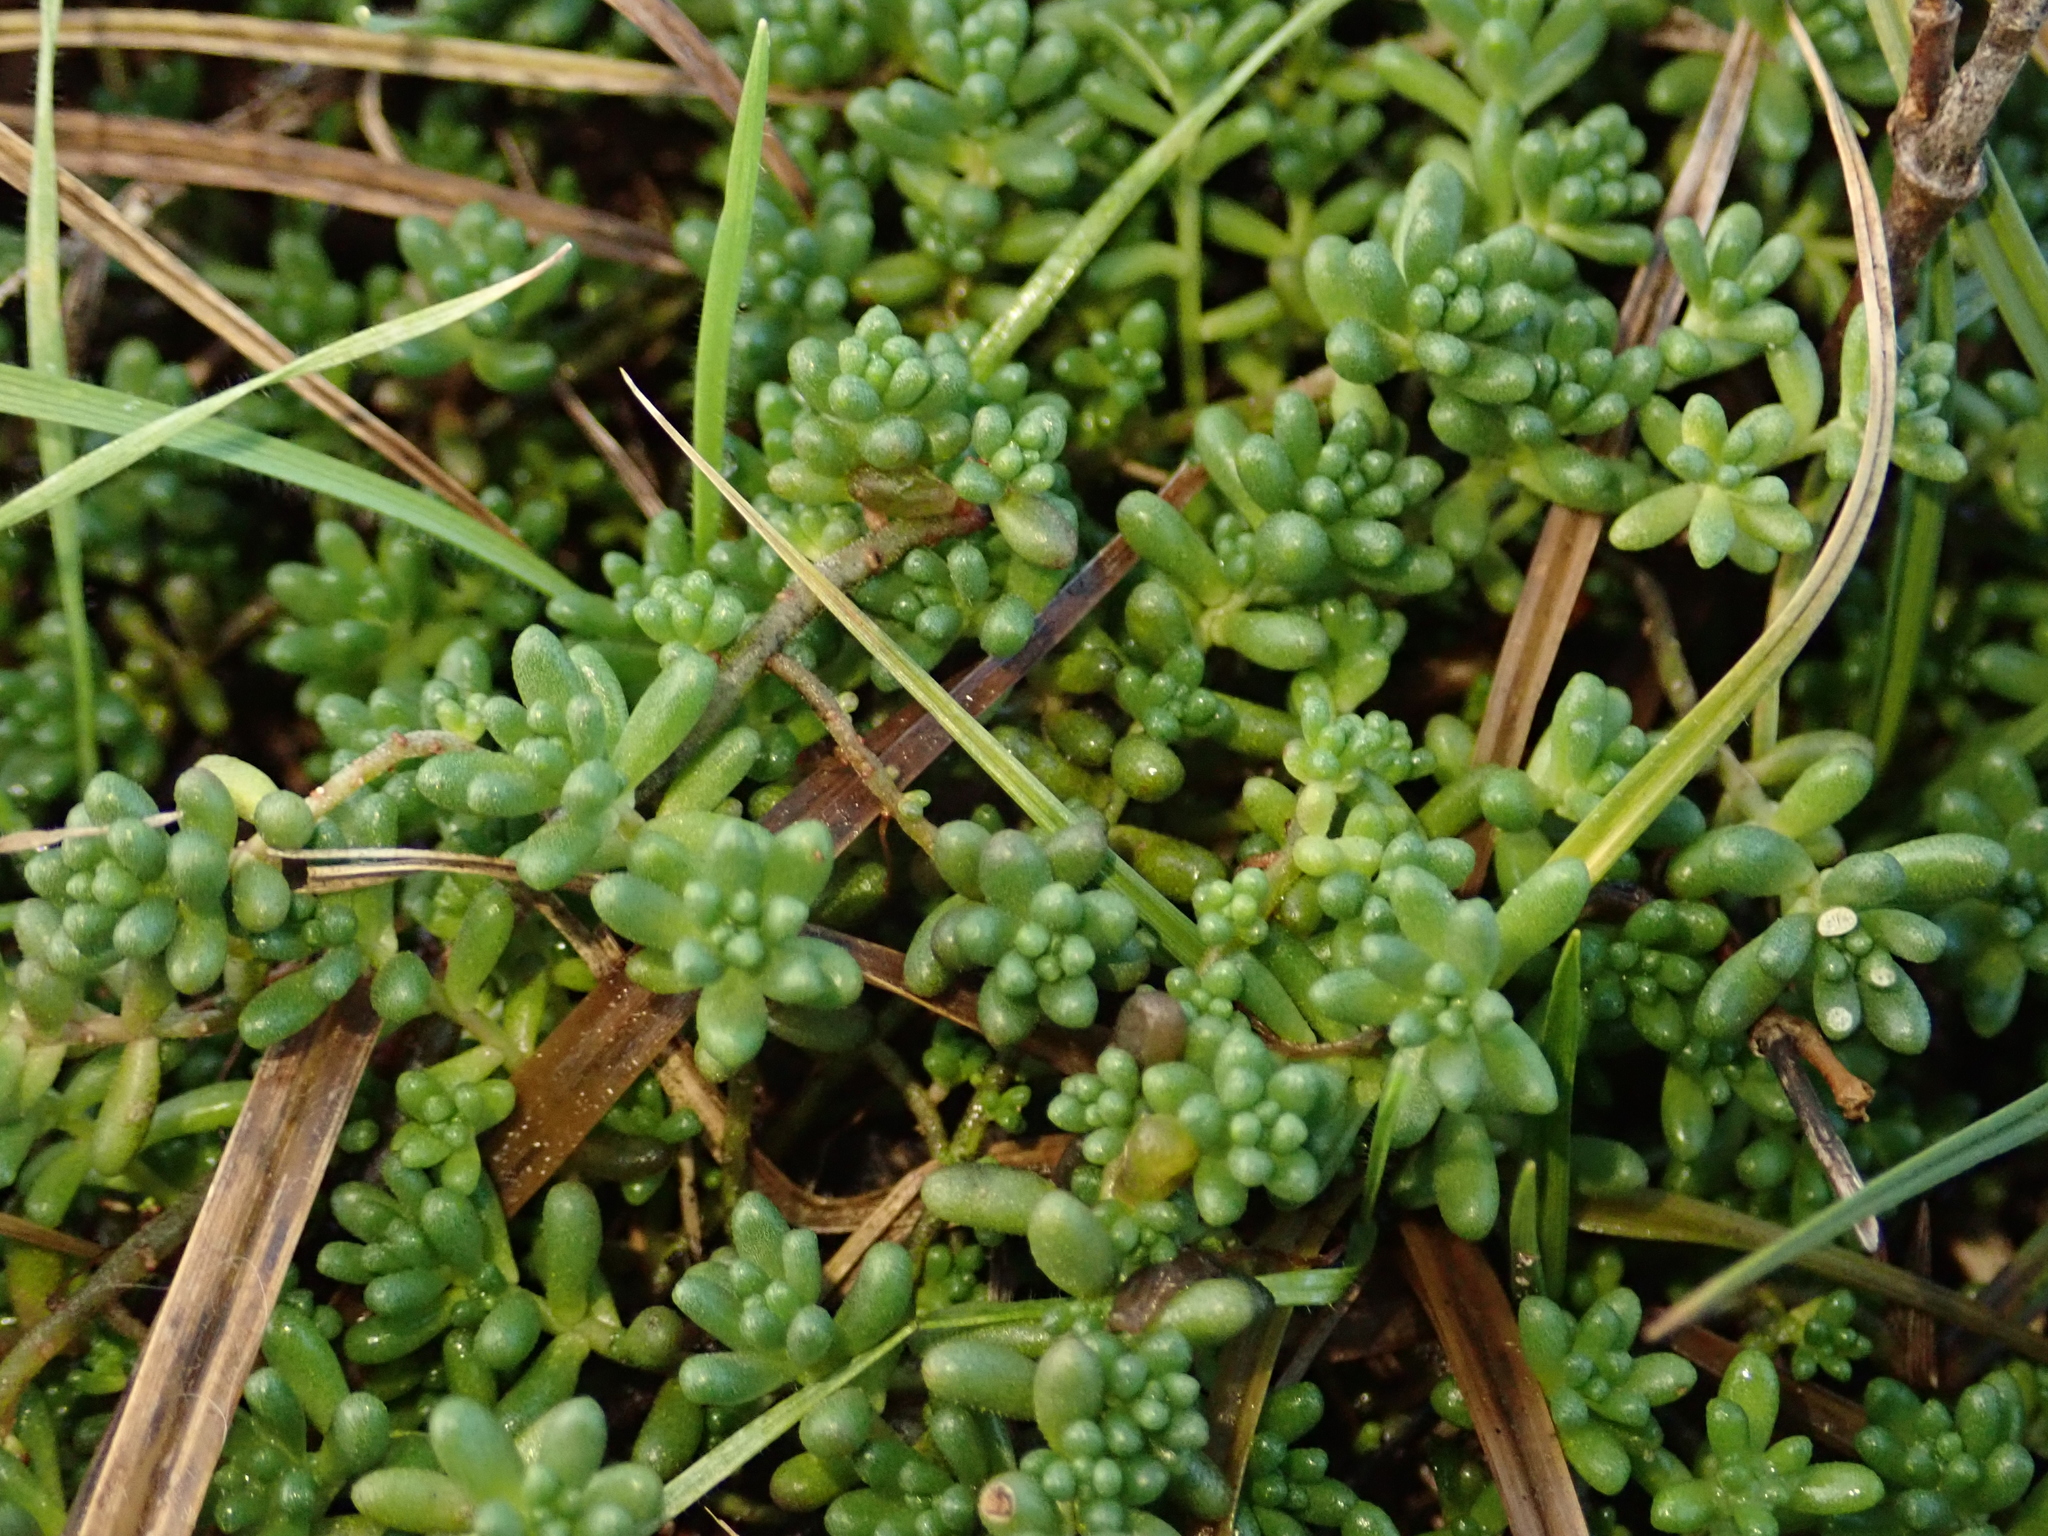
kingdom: Plantae
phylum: Tracheophyta
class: Magnoliopsida
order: Saxifragales
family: Crassulaceae
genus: Sedum
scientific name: Sedum album
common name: White stonecrop
